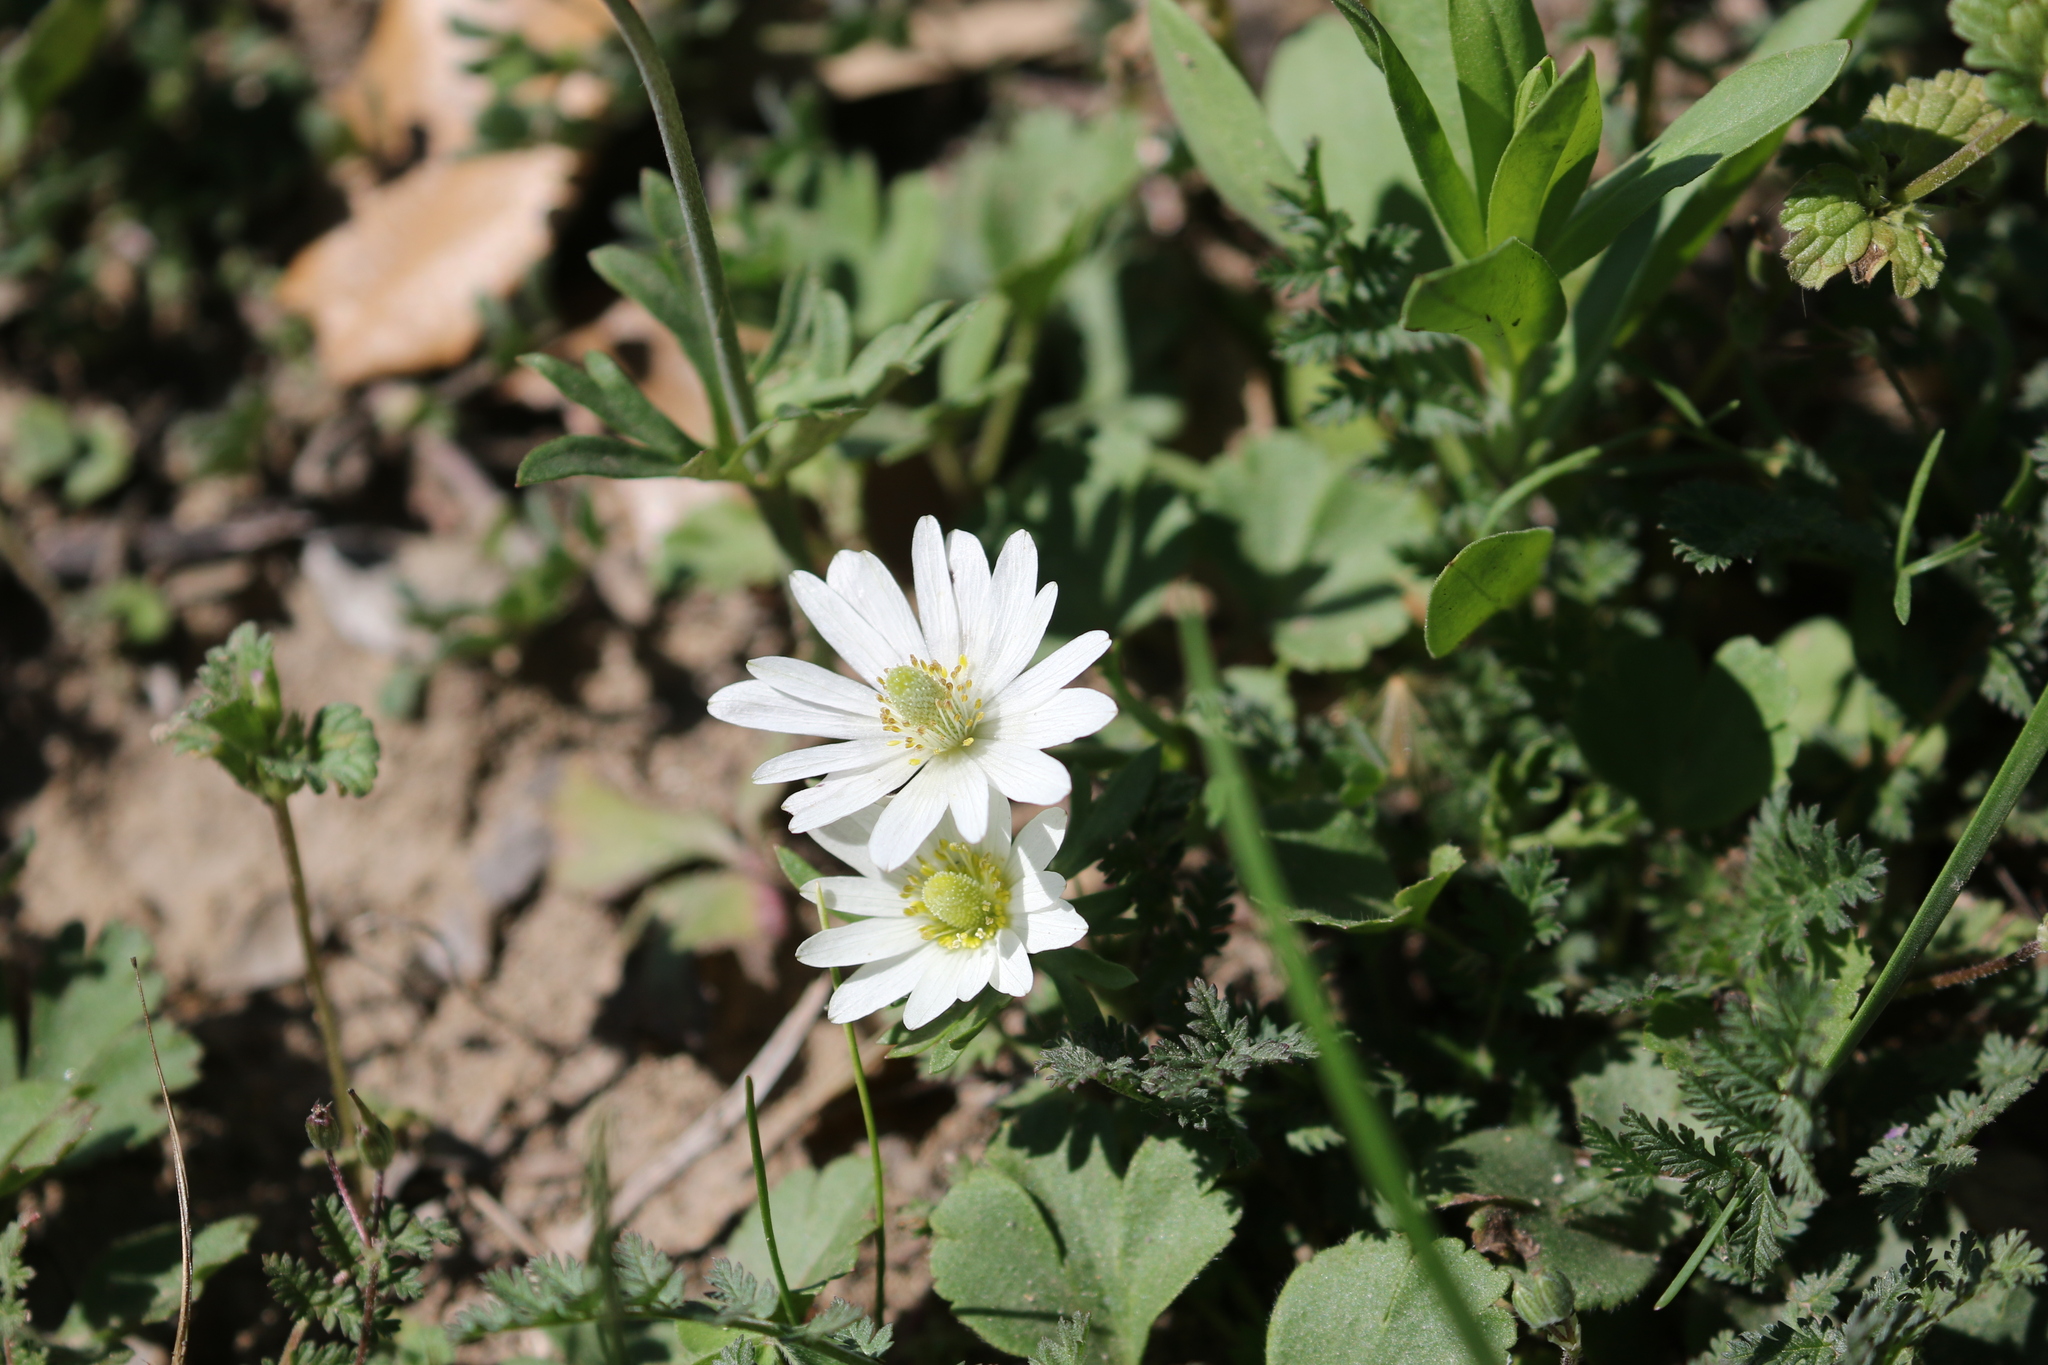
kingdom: Plantae
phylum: Tracheophyta
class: Magnoliopsida
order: Ranunculales
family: Ranunculaceae
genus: Anemone
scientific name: Anemone berlandieri
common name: Ten-petal anemone
